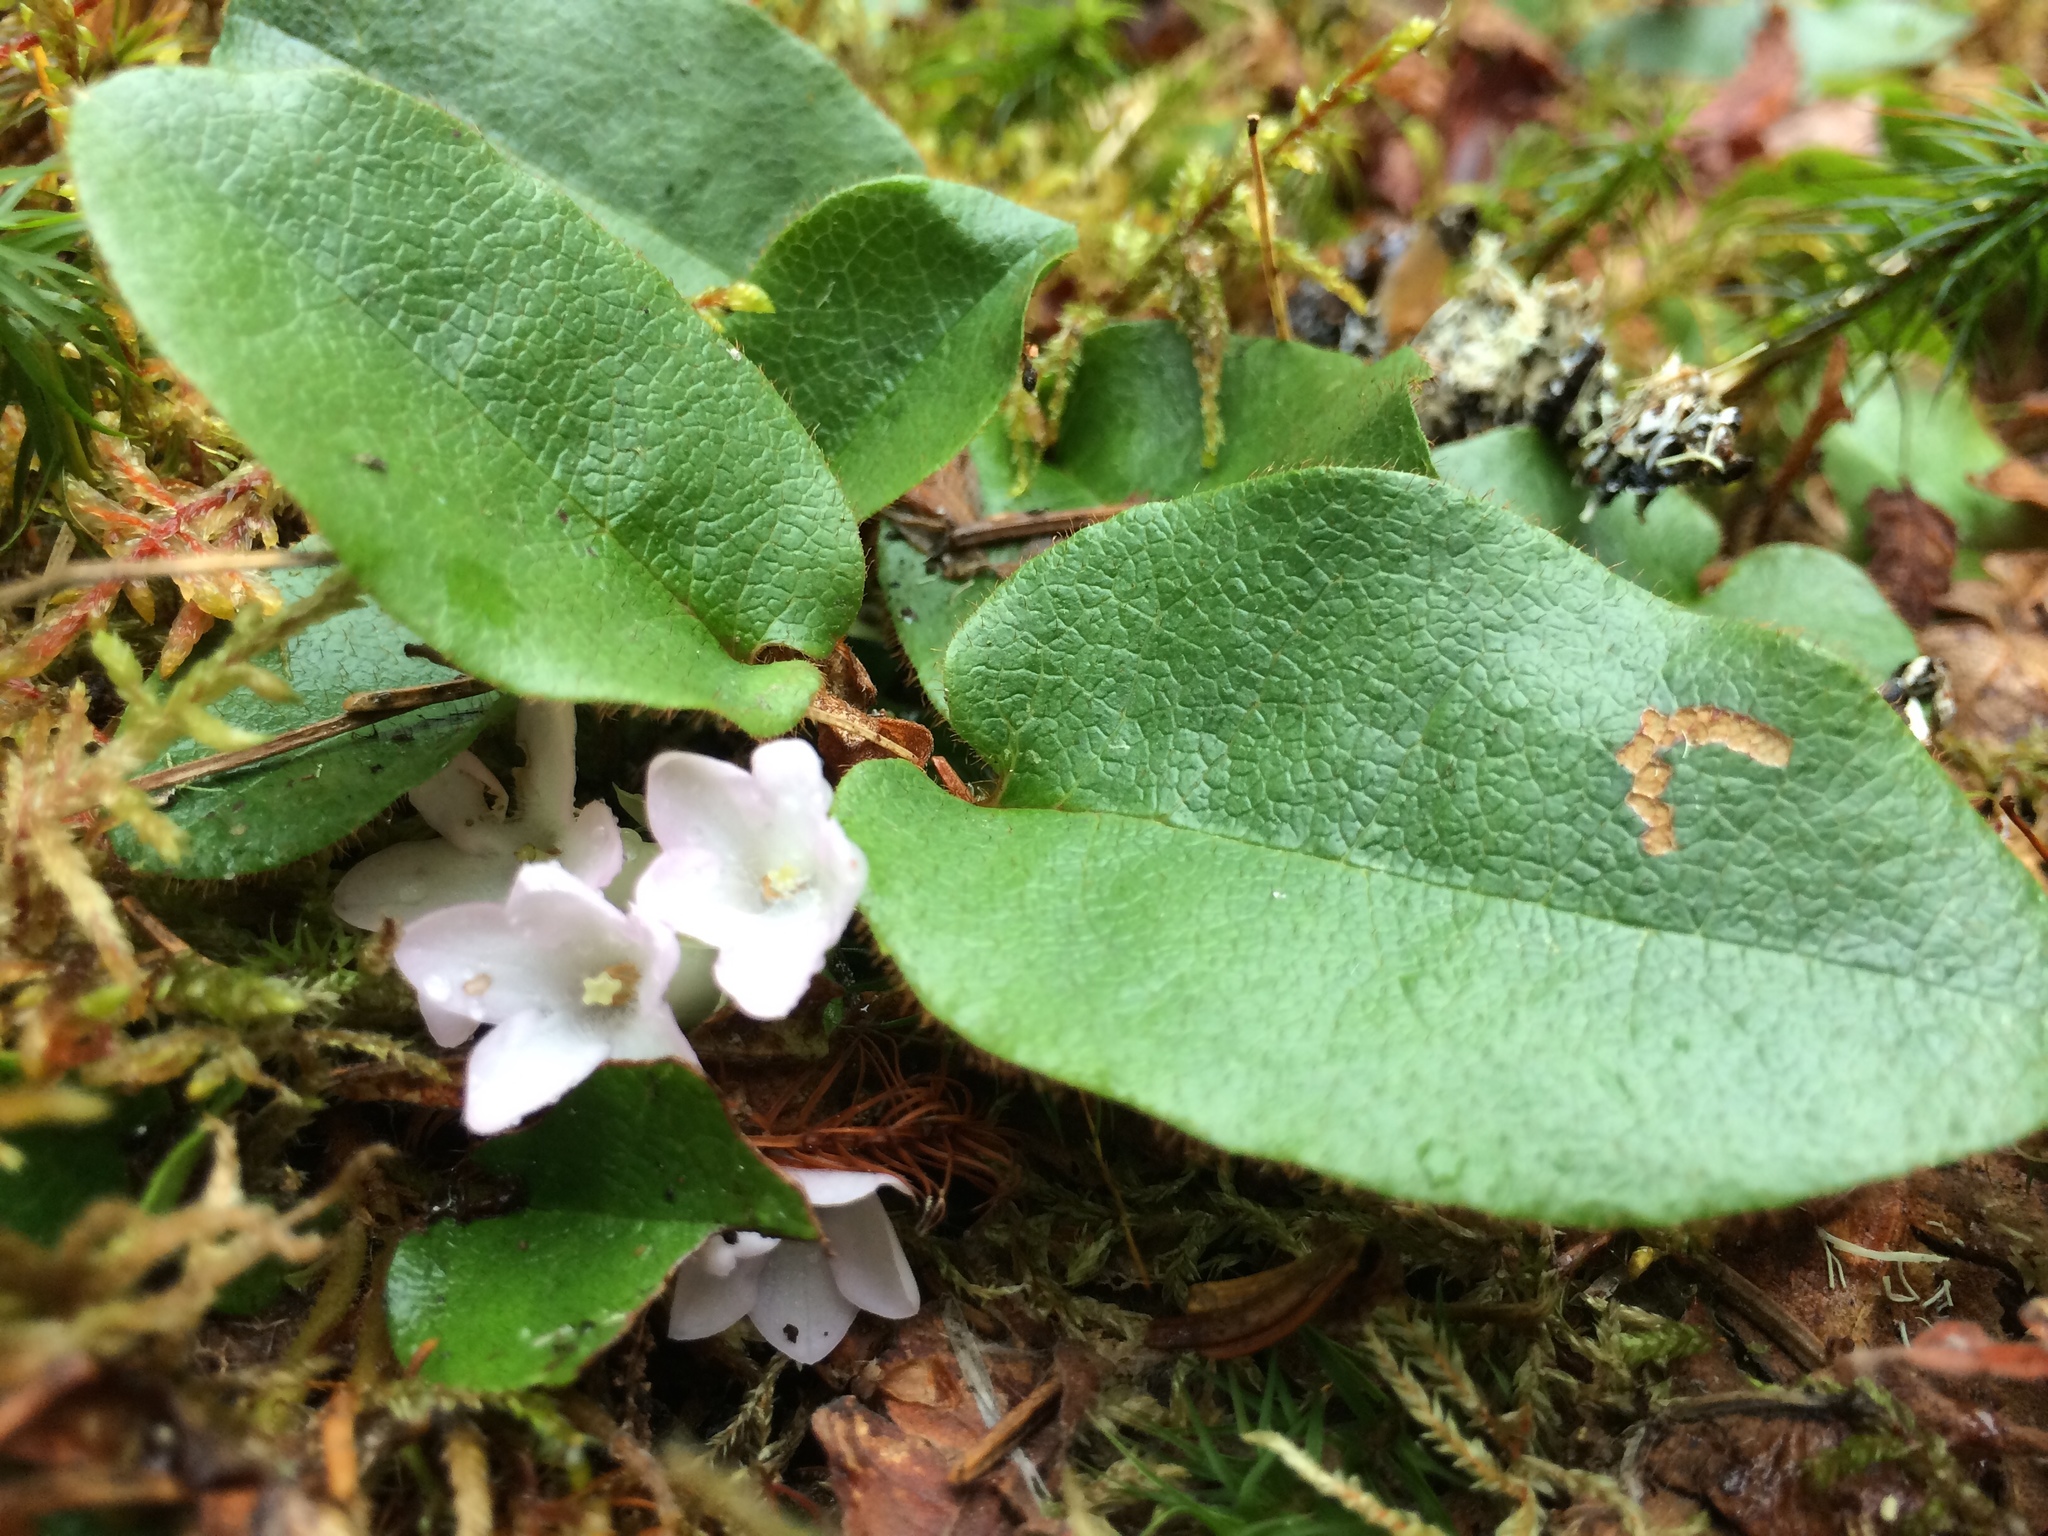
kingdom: Plantae
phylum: Tracheophyta
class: Magnoliopsida
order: Ericales
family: Ericaceae
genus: Epigaea
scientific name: Epigaea repens
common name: Gravelroot
